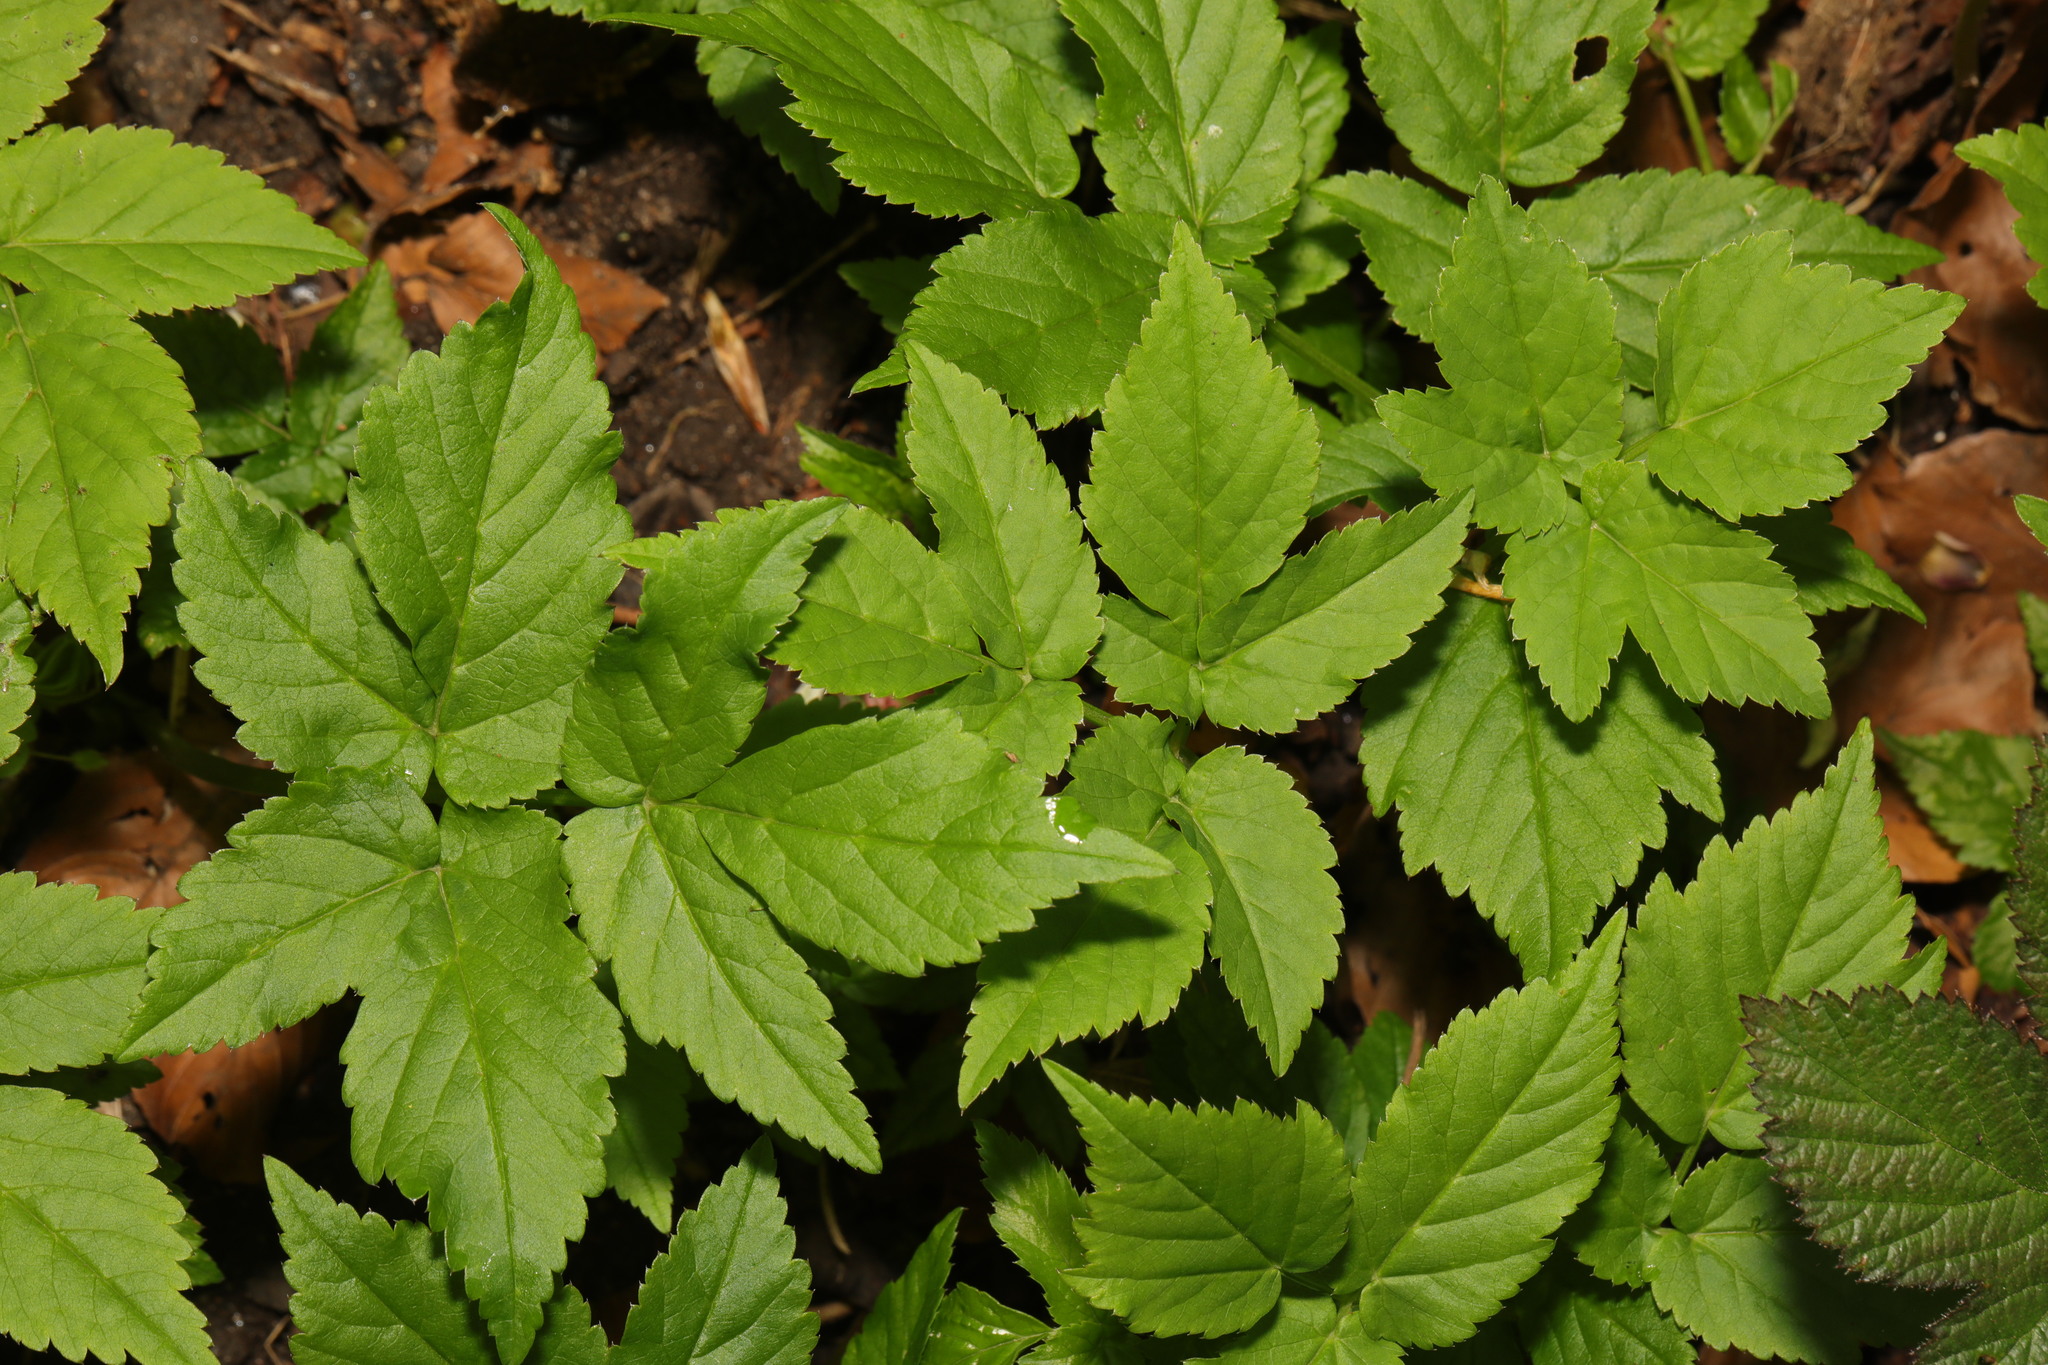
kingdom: Plantae
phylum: Tracheophyta
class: Magnoliopsida
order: Apiales
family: Apiaceae
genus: Aegopodium
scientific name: Aegopodium podagraria
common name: Ground-elder
